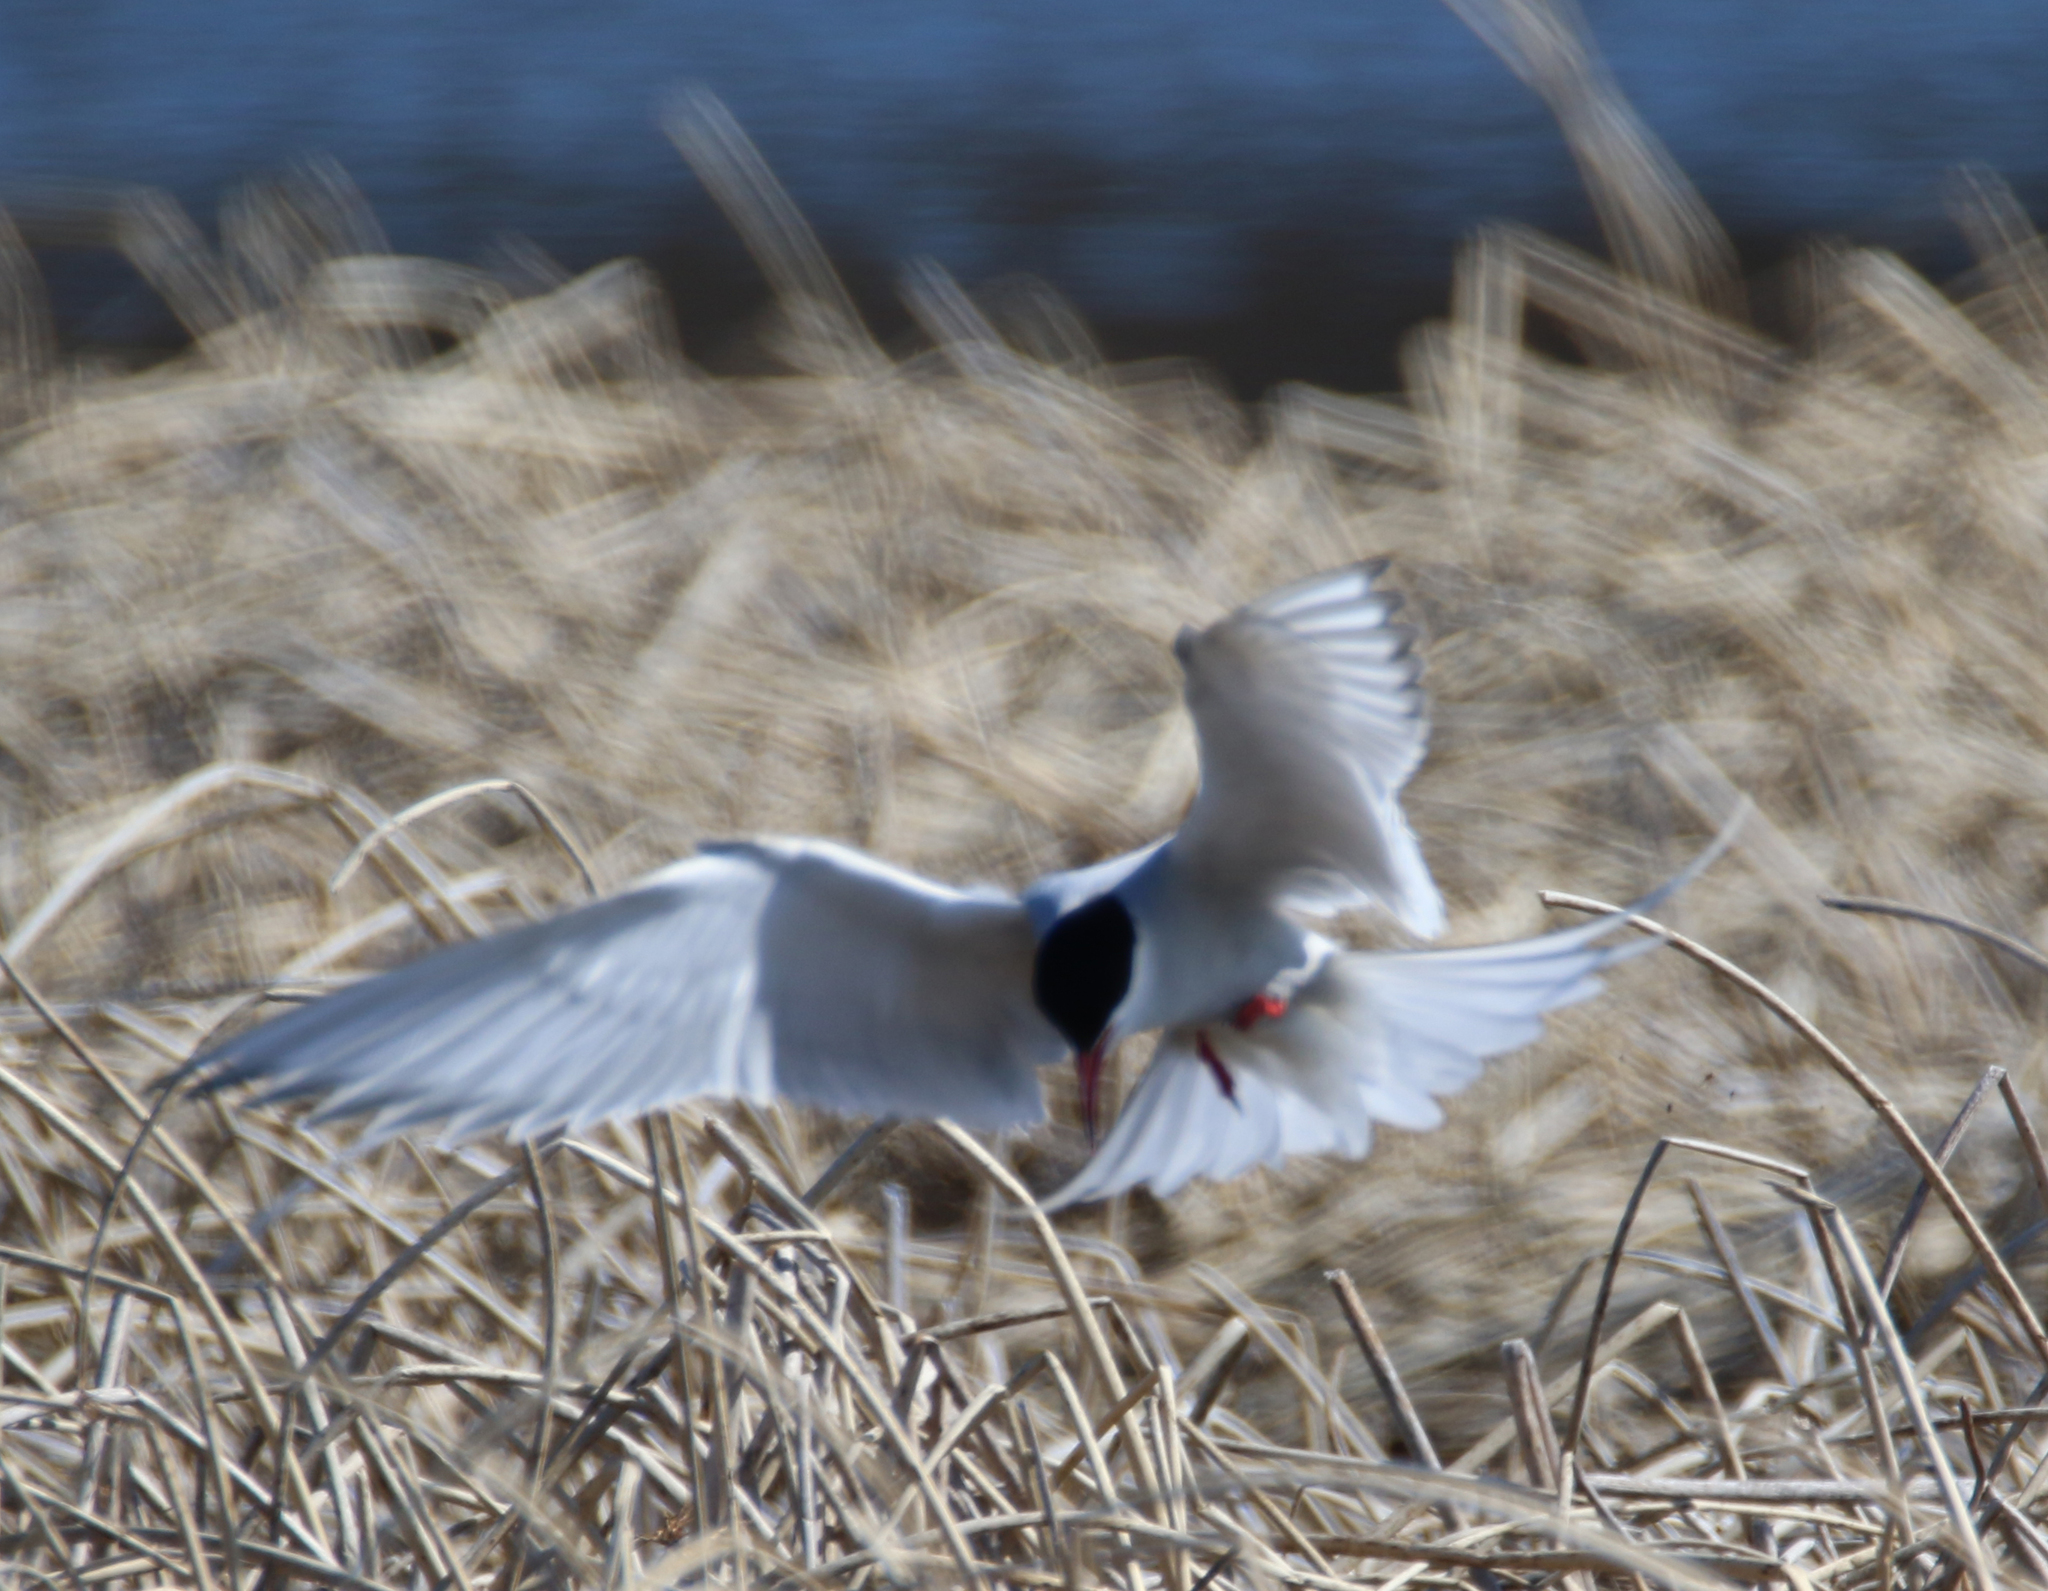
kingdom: Animalia
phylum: Chordata
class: Aves
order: Charadriiformes
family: Laridae
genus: Sterna
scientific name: Sterna paradisaea
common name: Arctic tern
